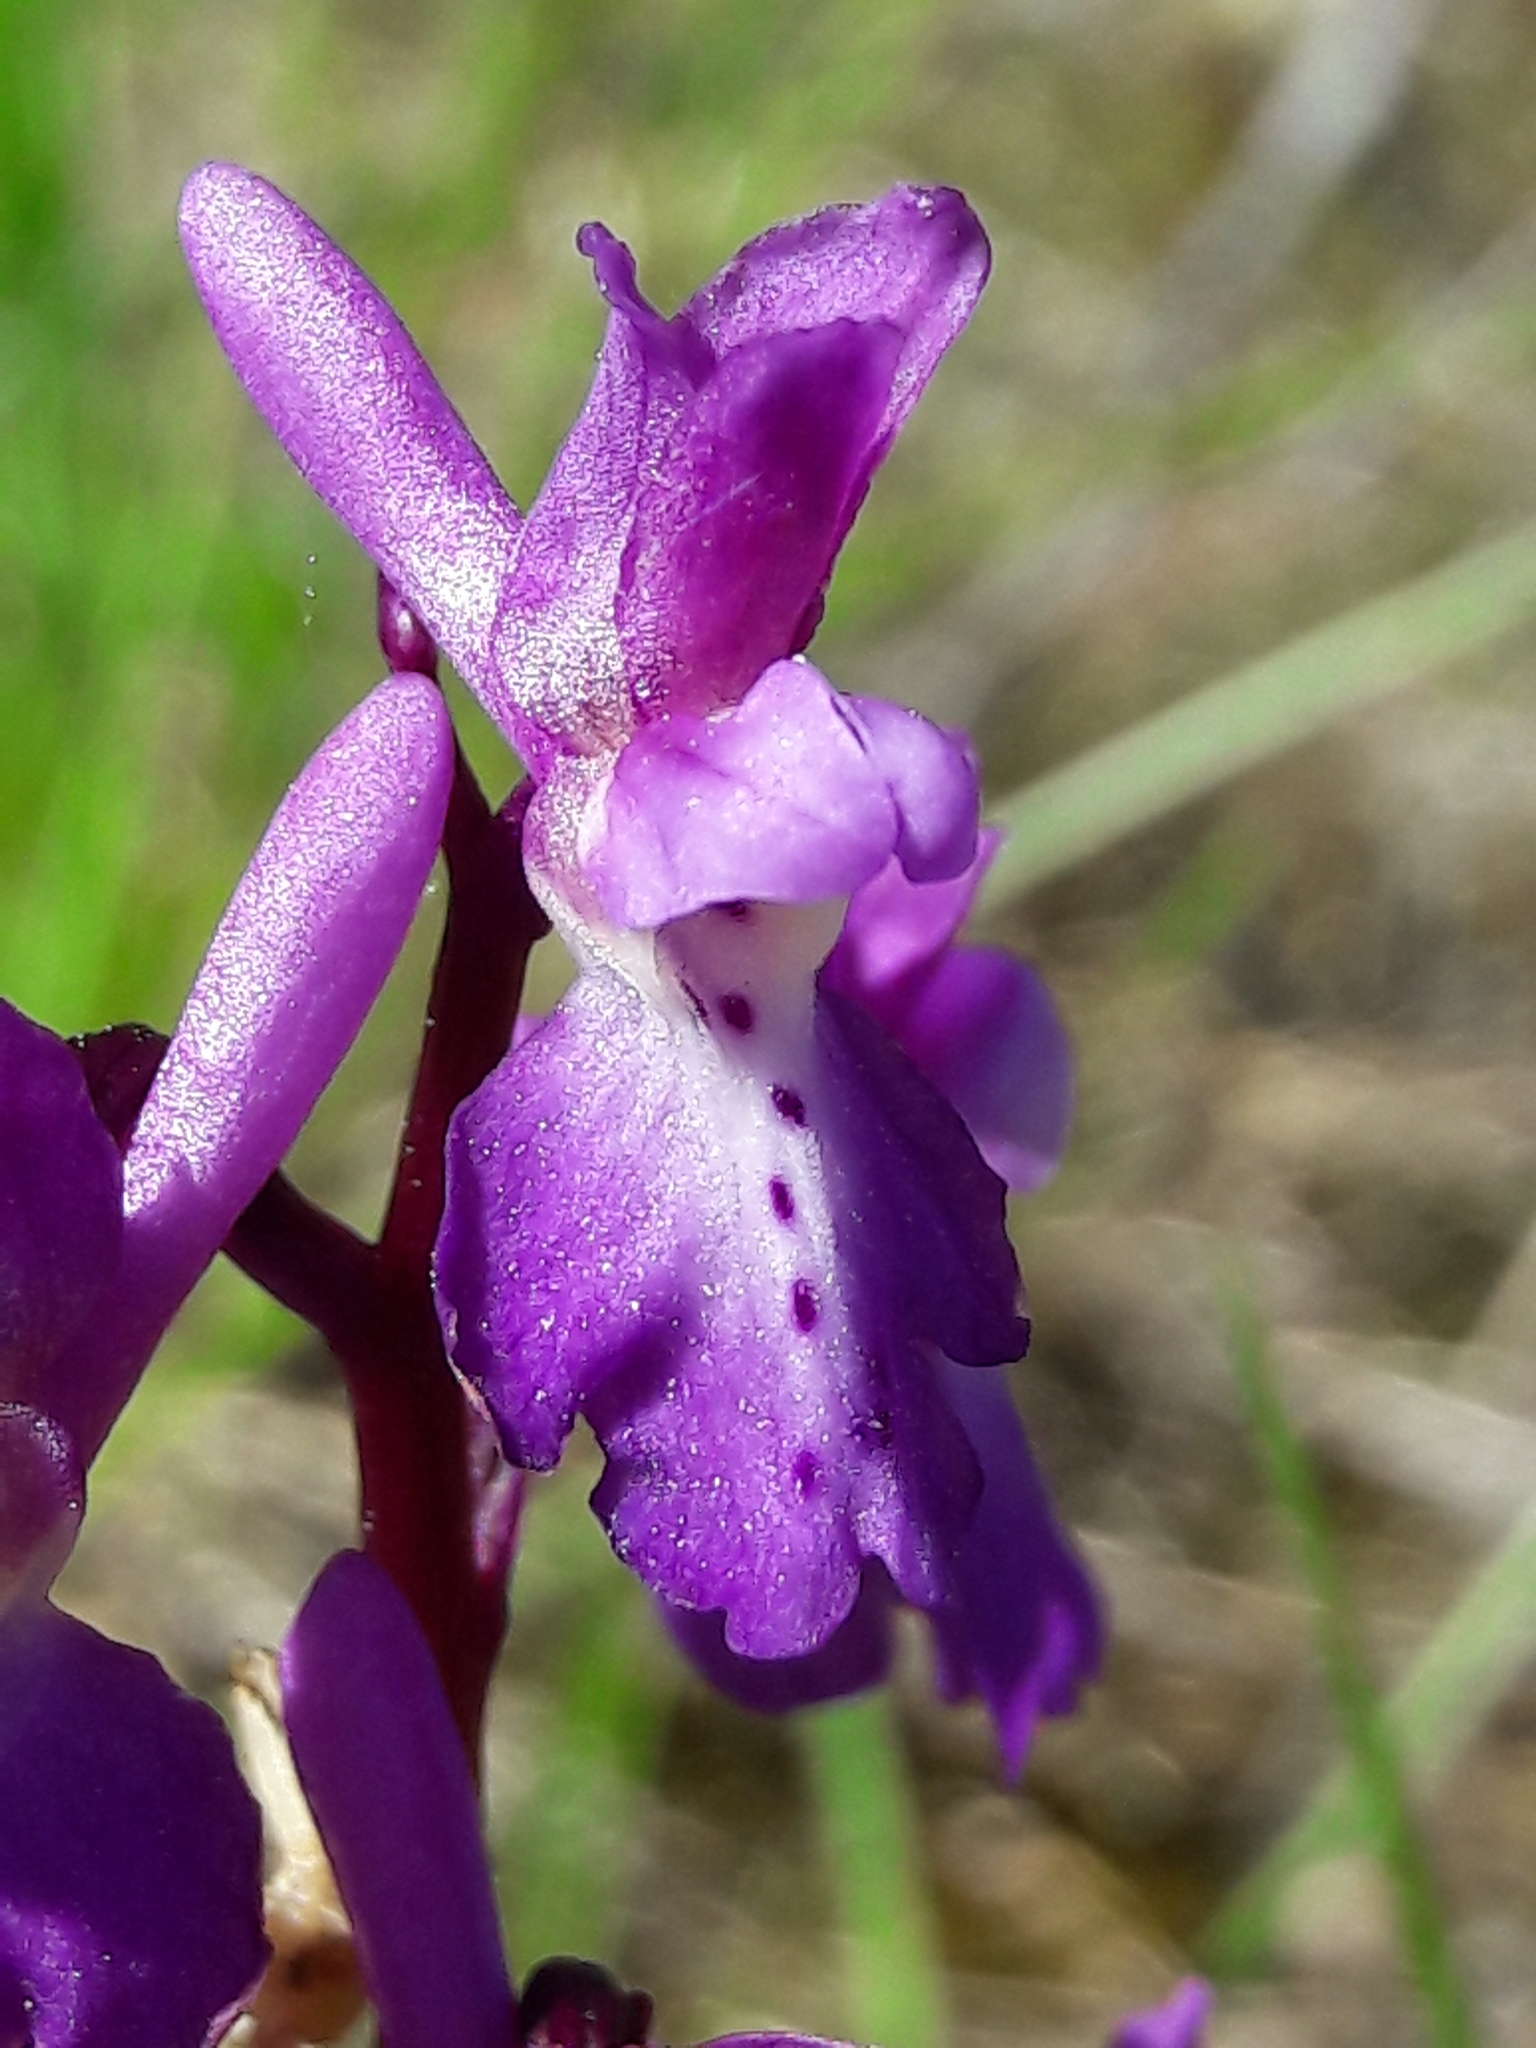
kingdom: Plantae
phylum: Tracheophyta
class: Liliopsida
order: Asparagales
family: Orchidaceae
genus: Orchis
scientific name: Orchis mascula
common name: Early-purple orchid
